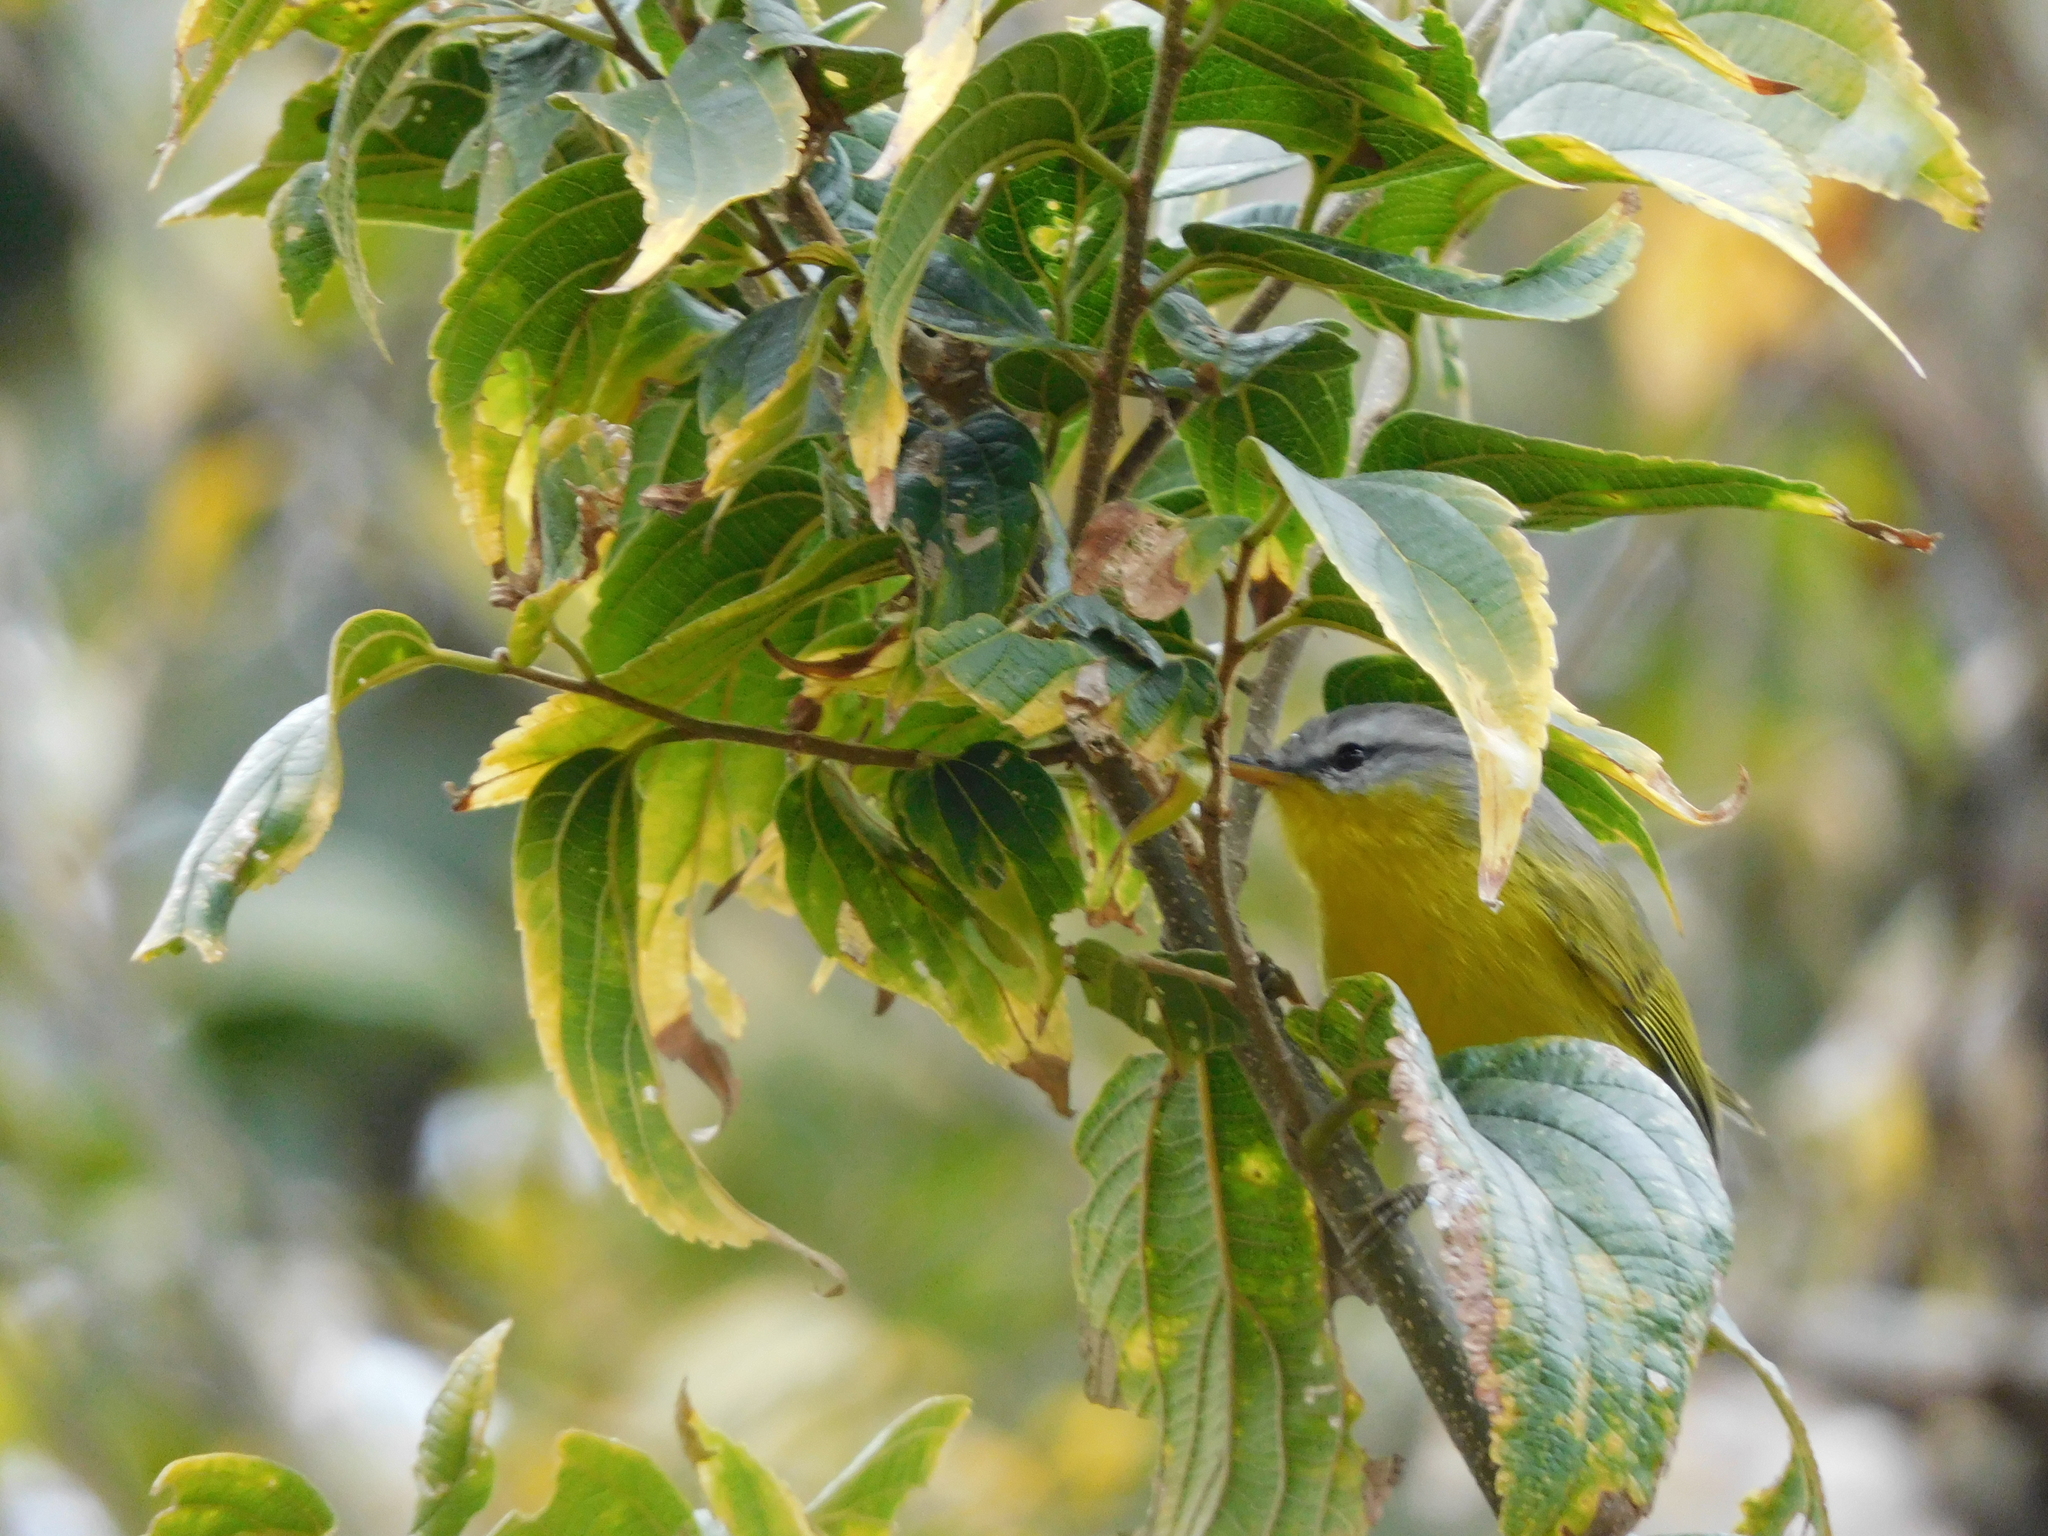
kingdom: Animalia
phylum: Chordata
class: Aves
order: Passeriformes
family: Phylloscopidae
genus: Phylloscopus
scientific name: Phylloscopus xanthoschistos
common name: Grey-hooded warbler
